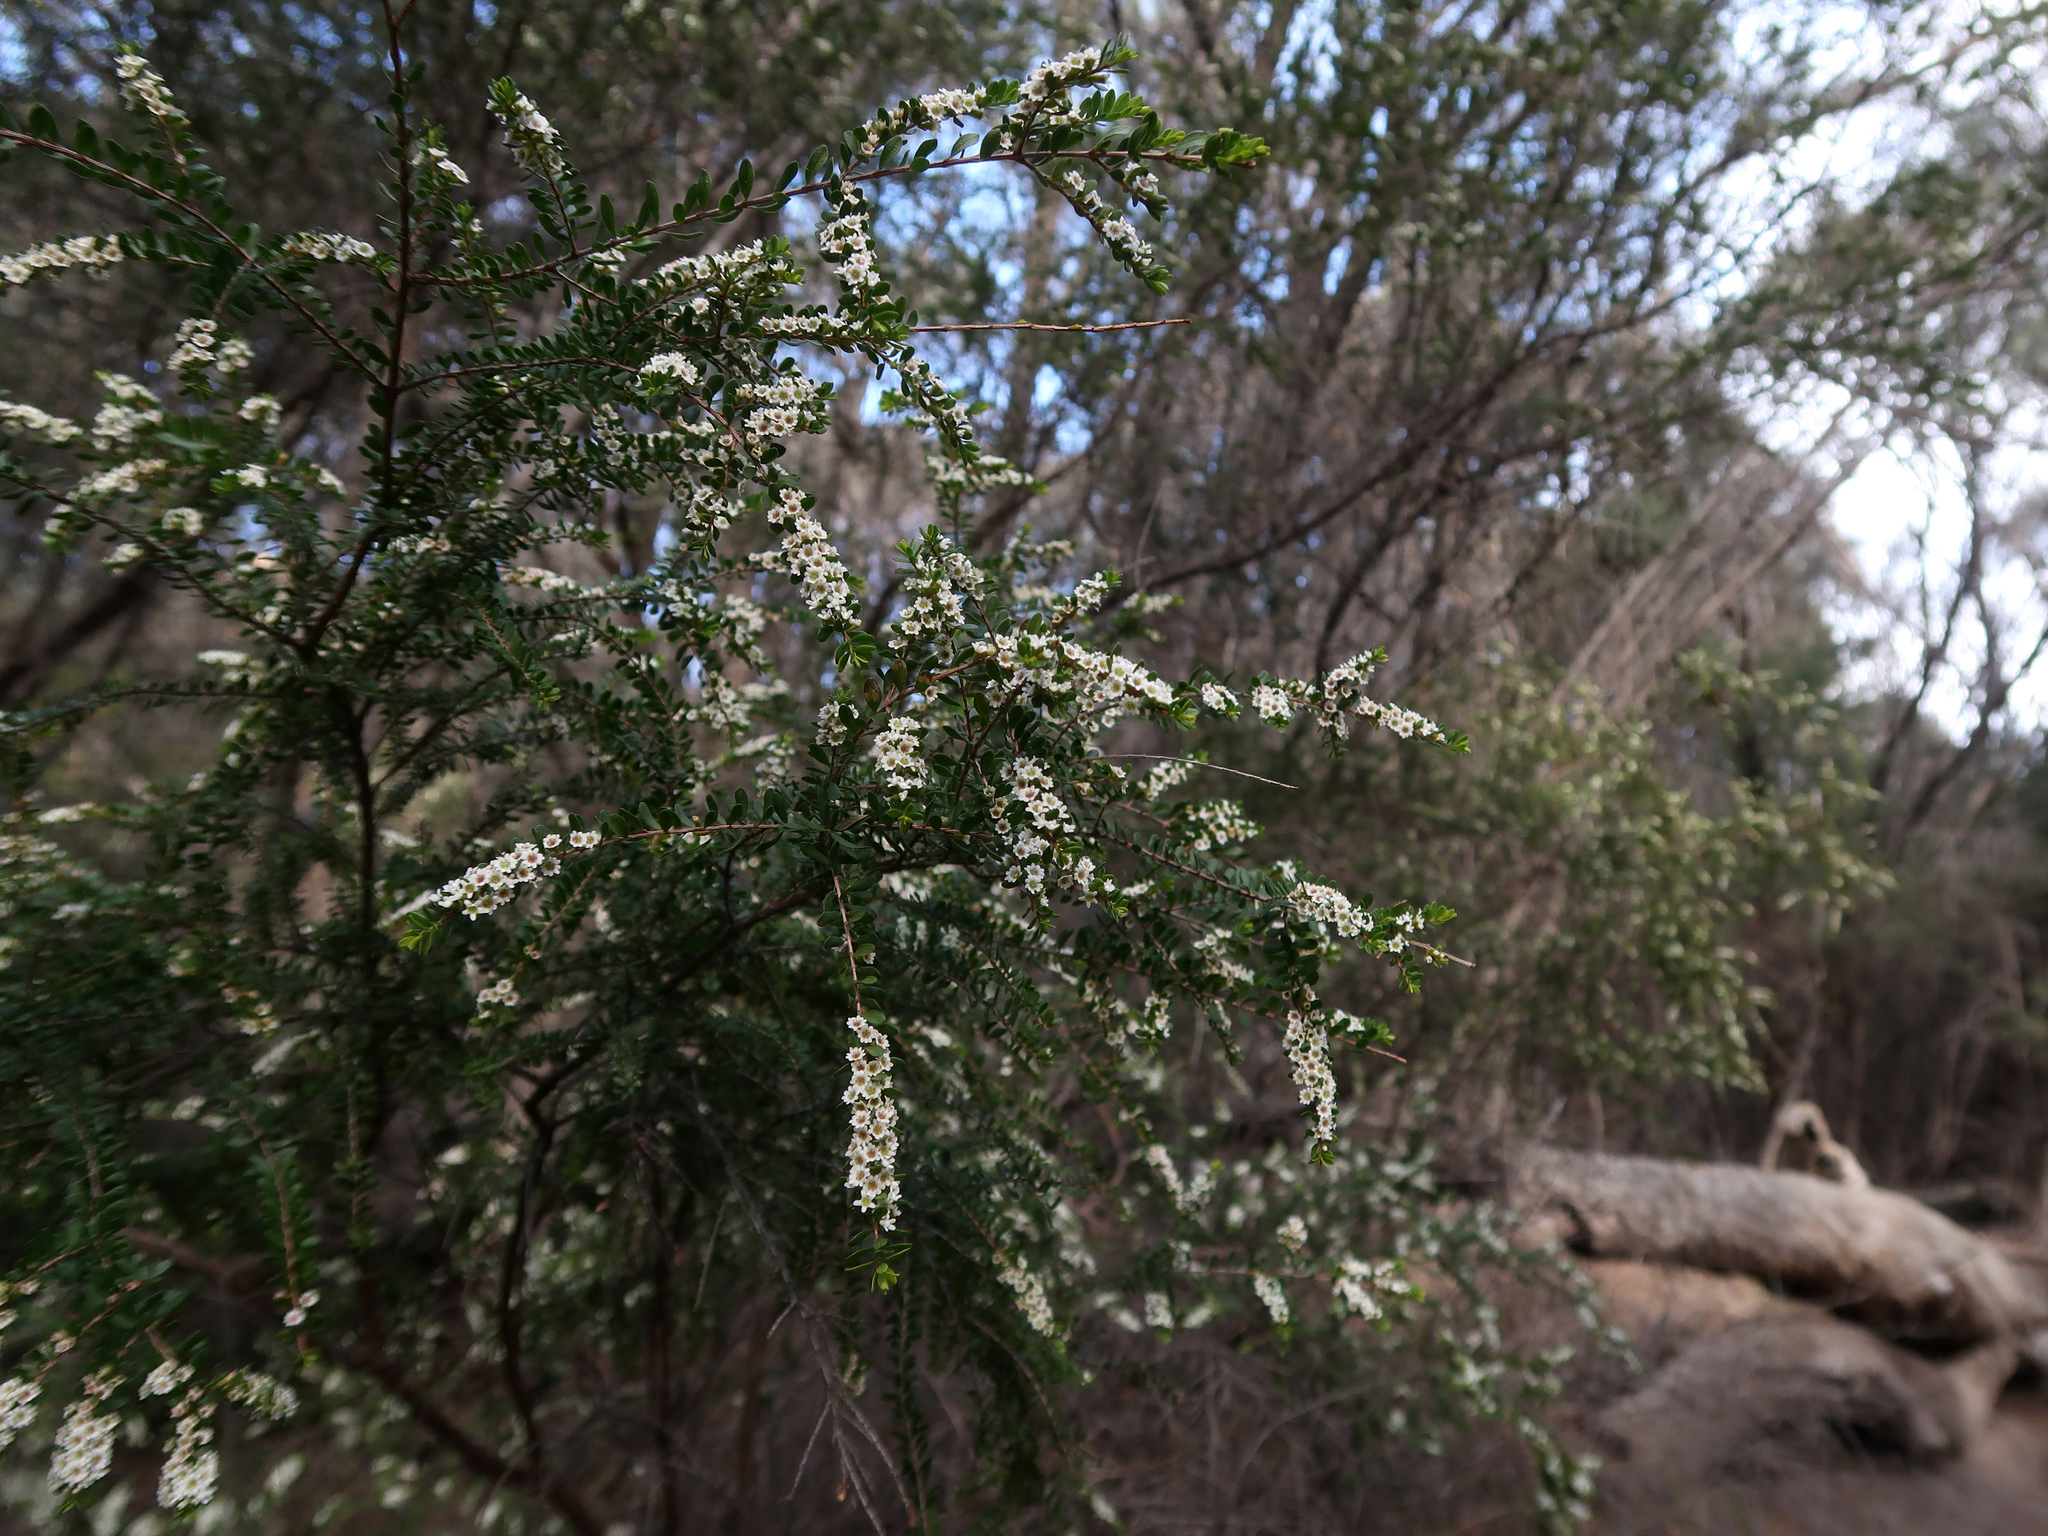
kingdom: Plantae
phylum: Tracheophyta
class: Magnoliopsida
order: Myrtales
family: Myrtaceae
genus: Thryptomene
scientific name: Thryptomene micrantha
